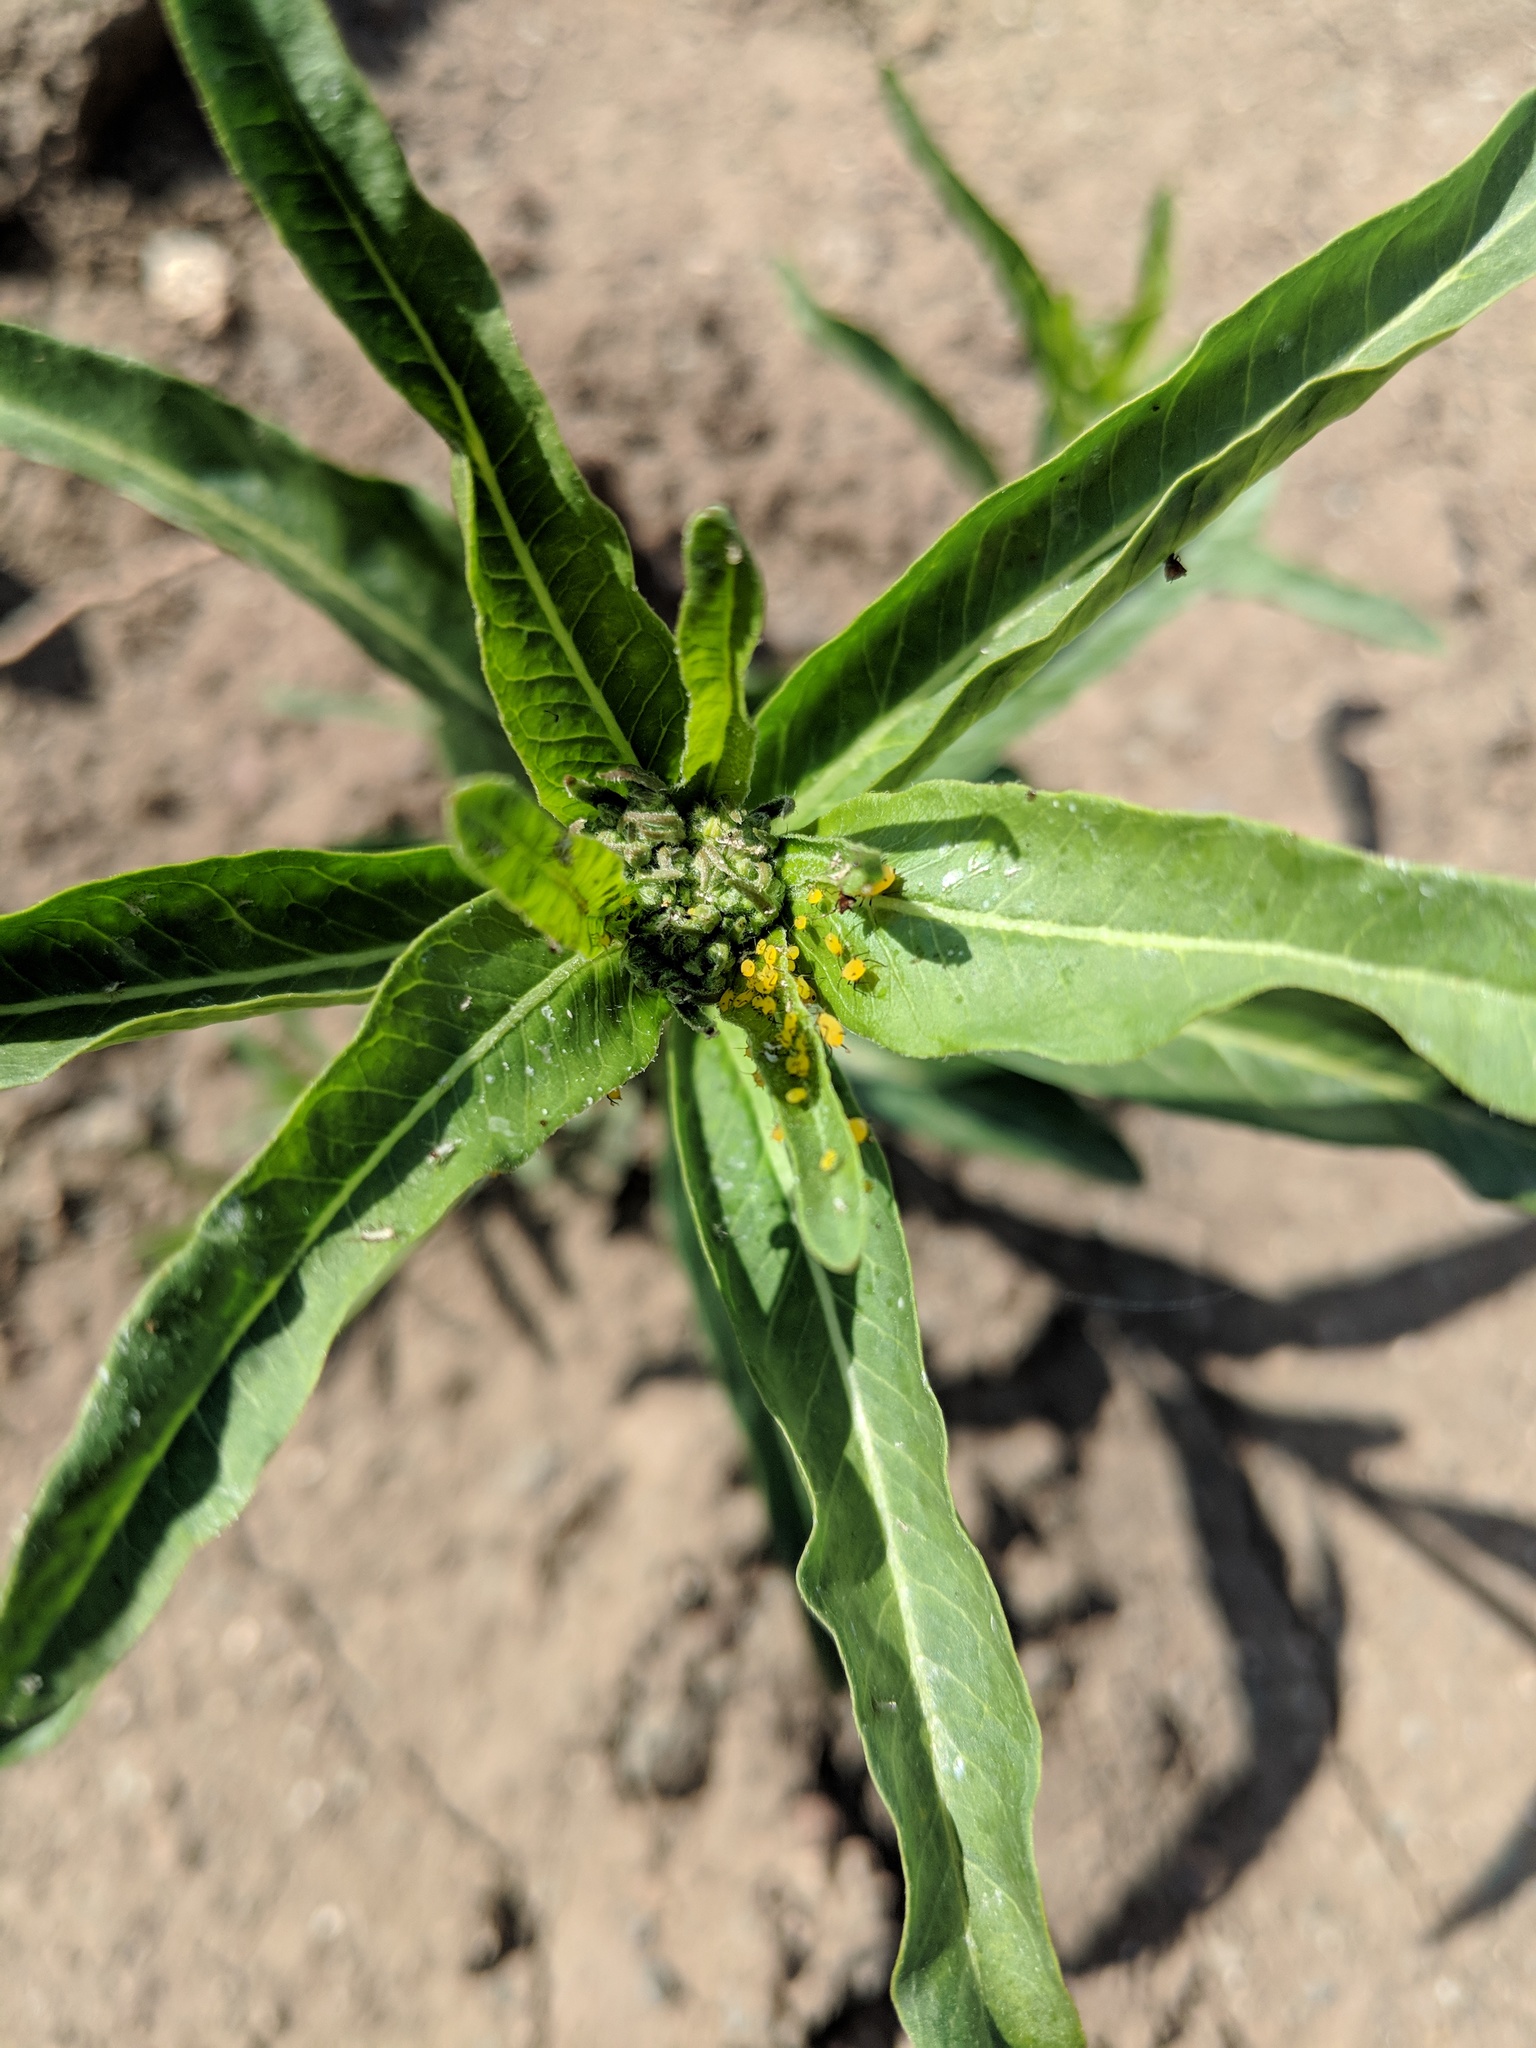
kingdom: Plantae
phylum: Tracheophyta
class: Magnoliopsida
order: Gentianales
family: Apocynaceae
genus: Asclepias
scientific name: Asclepias fascicularis
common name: Mexican milkweed
